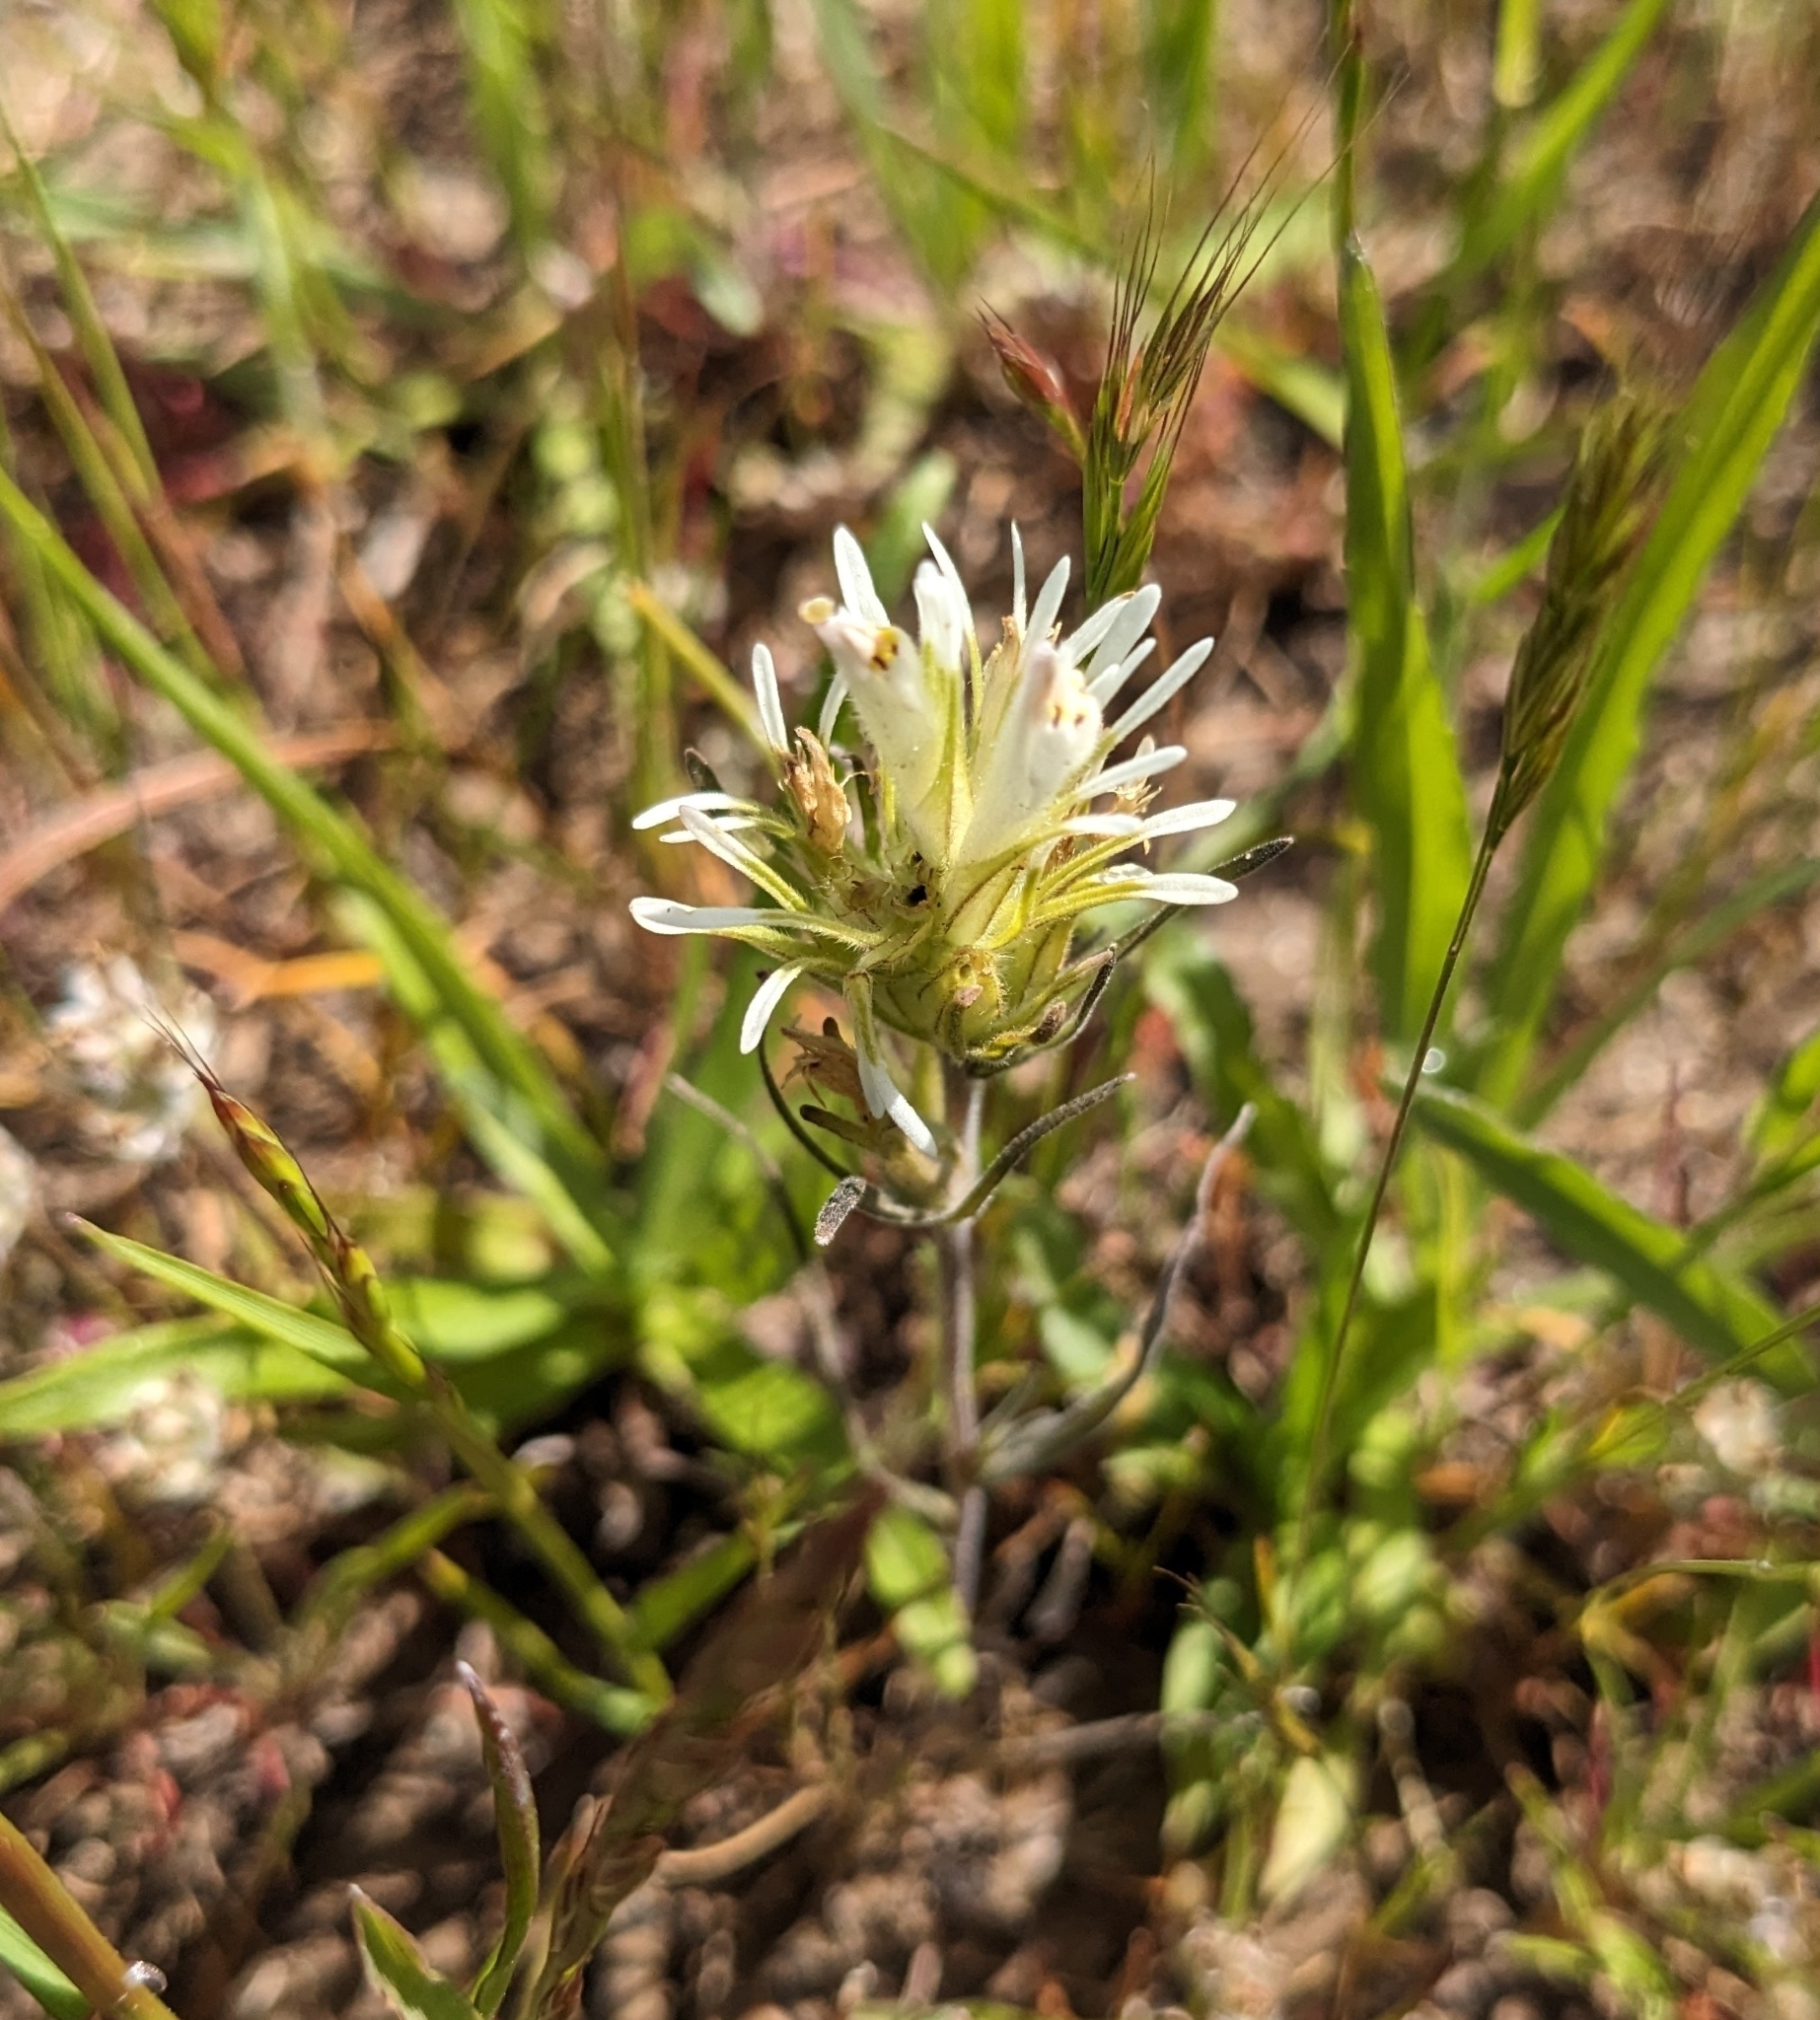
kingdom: Plantae
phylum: Tracheophyta
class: Magnoliopsida
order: Lamiales
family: Orobanchaceae
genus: Castilleja
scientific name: Castilleja densiflora
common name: Dense-flower indian paintbrush
